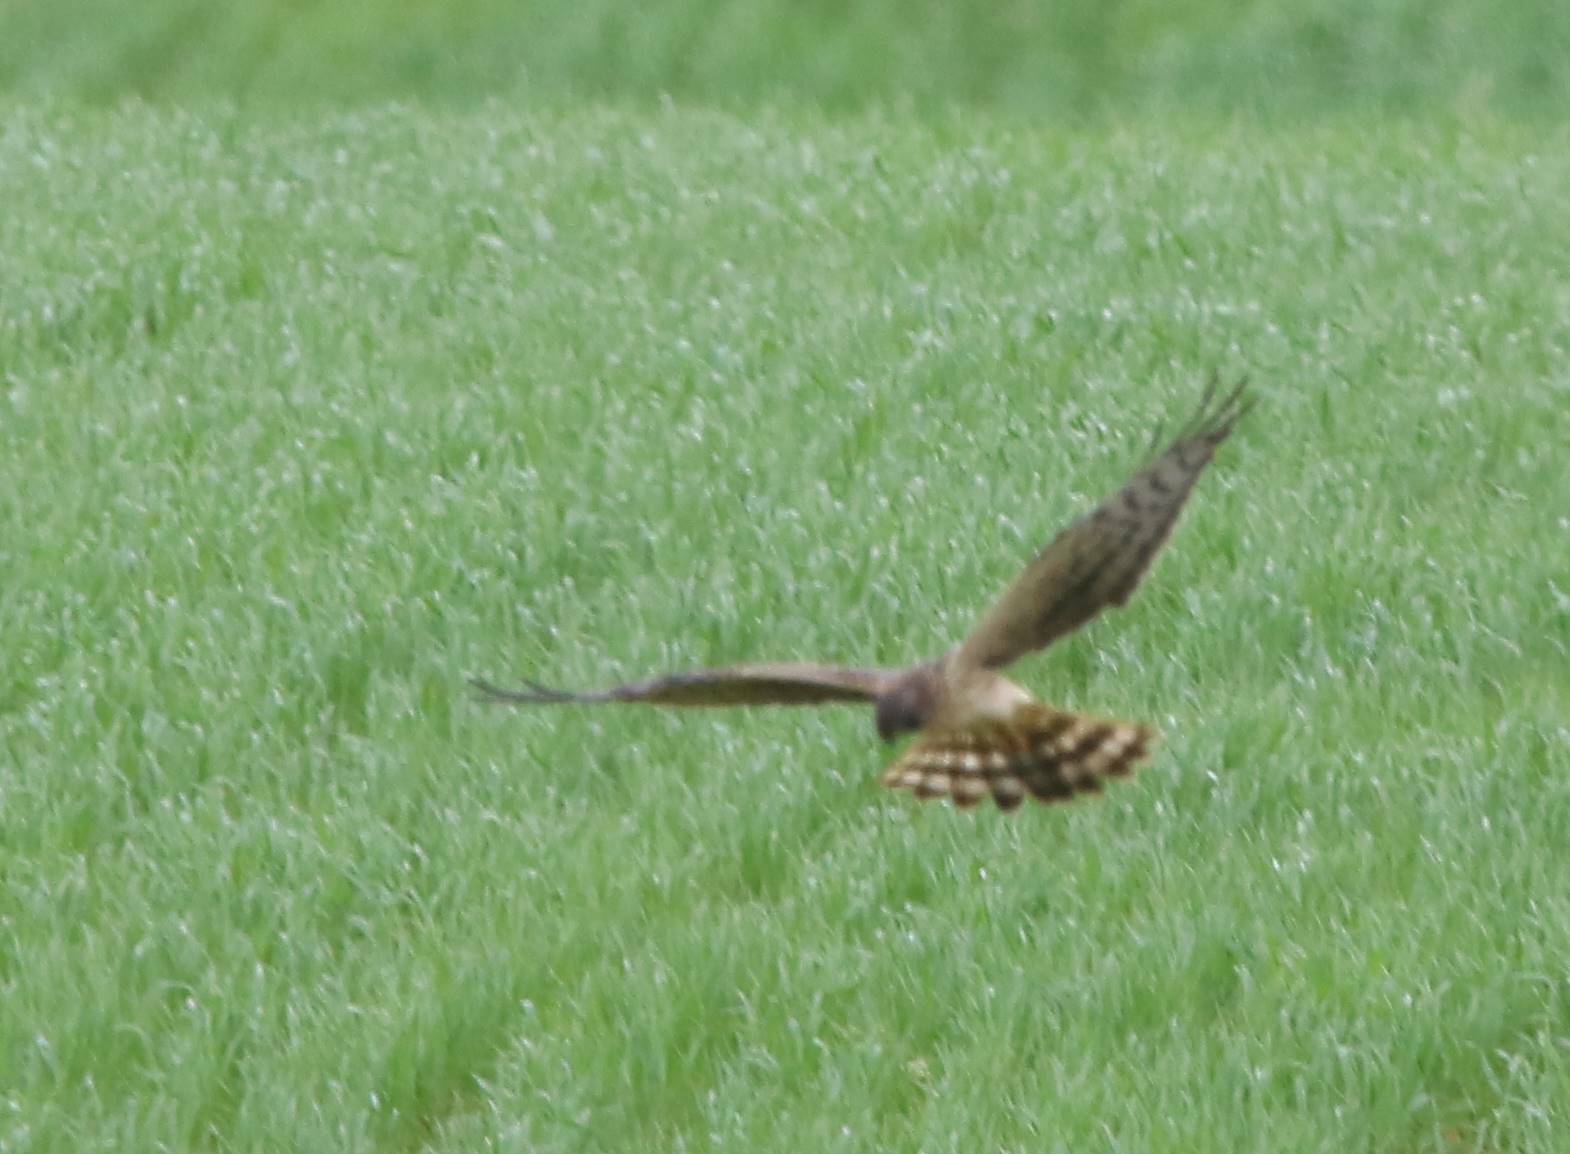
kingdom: Animalia
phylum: Chordata
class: Aves
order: Accipitriformes
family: Accipitridae
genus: Circus
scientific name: Circus pygargus
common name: Montagu's harrier
